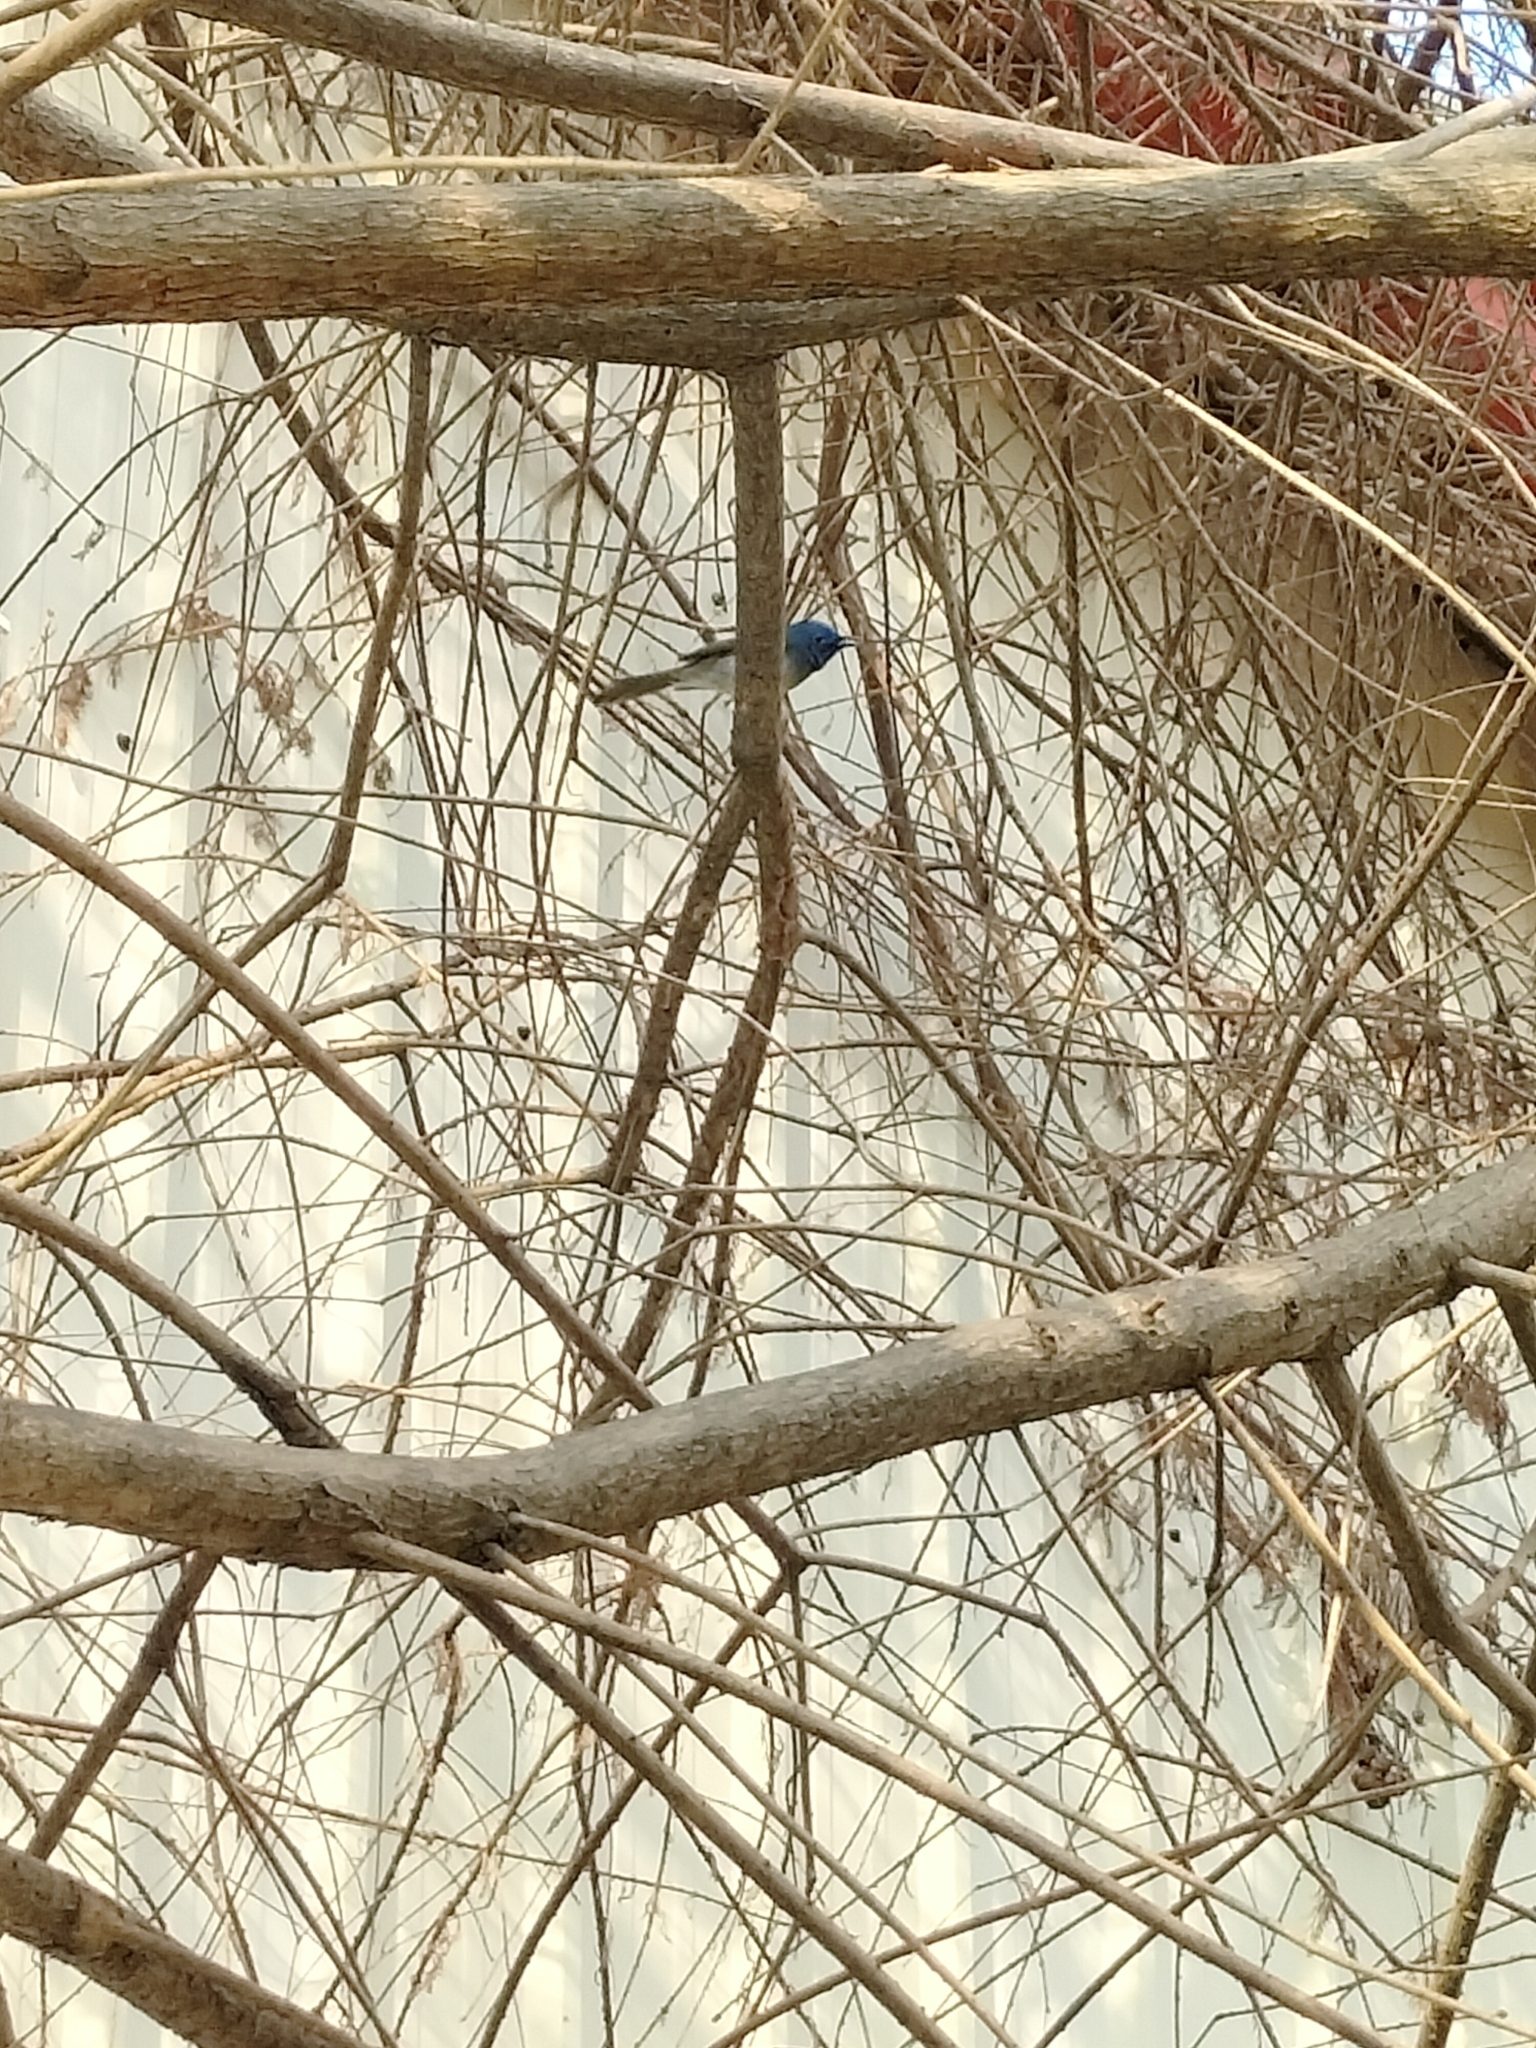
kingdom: Animalia
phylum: Chordata
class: Aves
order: Passeriformes
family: Monarchidae
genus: Hypothymis
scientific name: Hypothymis azurea
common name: Black-naped monarch
